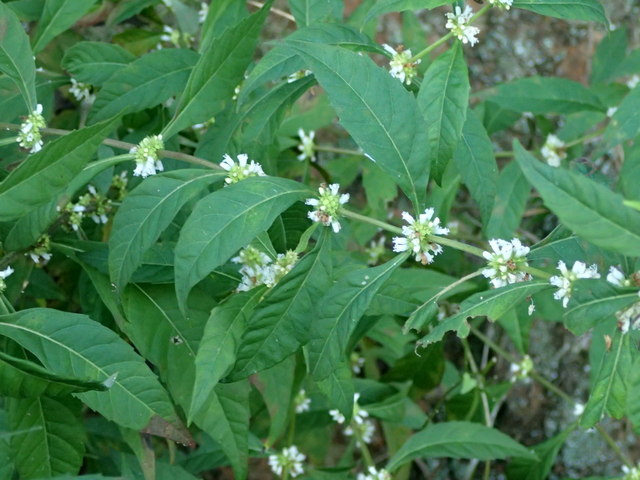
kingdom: Plantae
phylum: Tracheophyta
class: Magnoliopsida
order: Lamiales
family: Lamiaceae
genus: Lycopus
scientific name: Lycopus uniflorus
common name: Northern bugleweed
